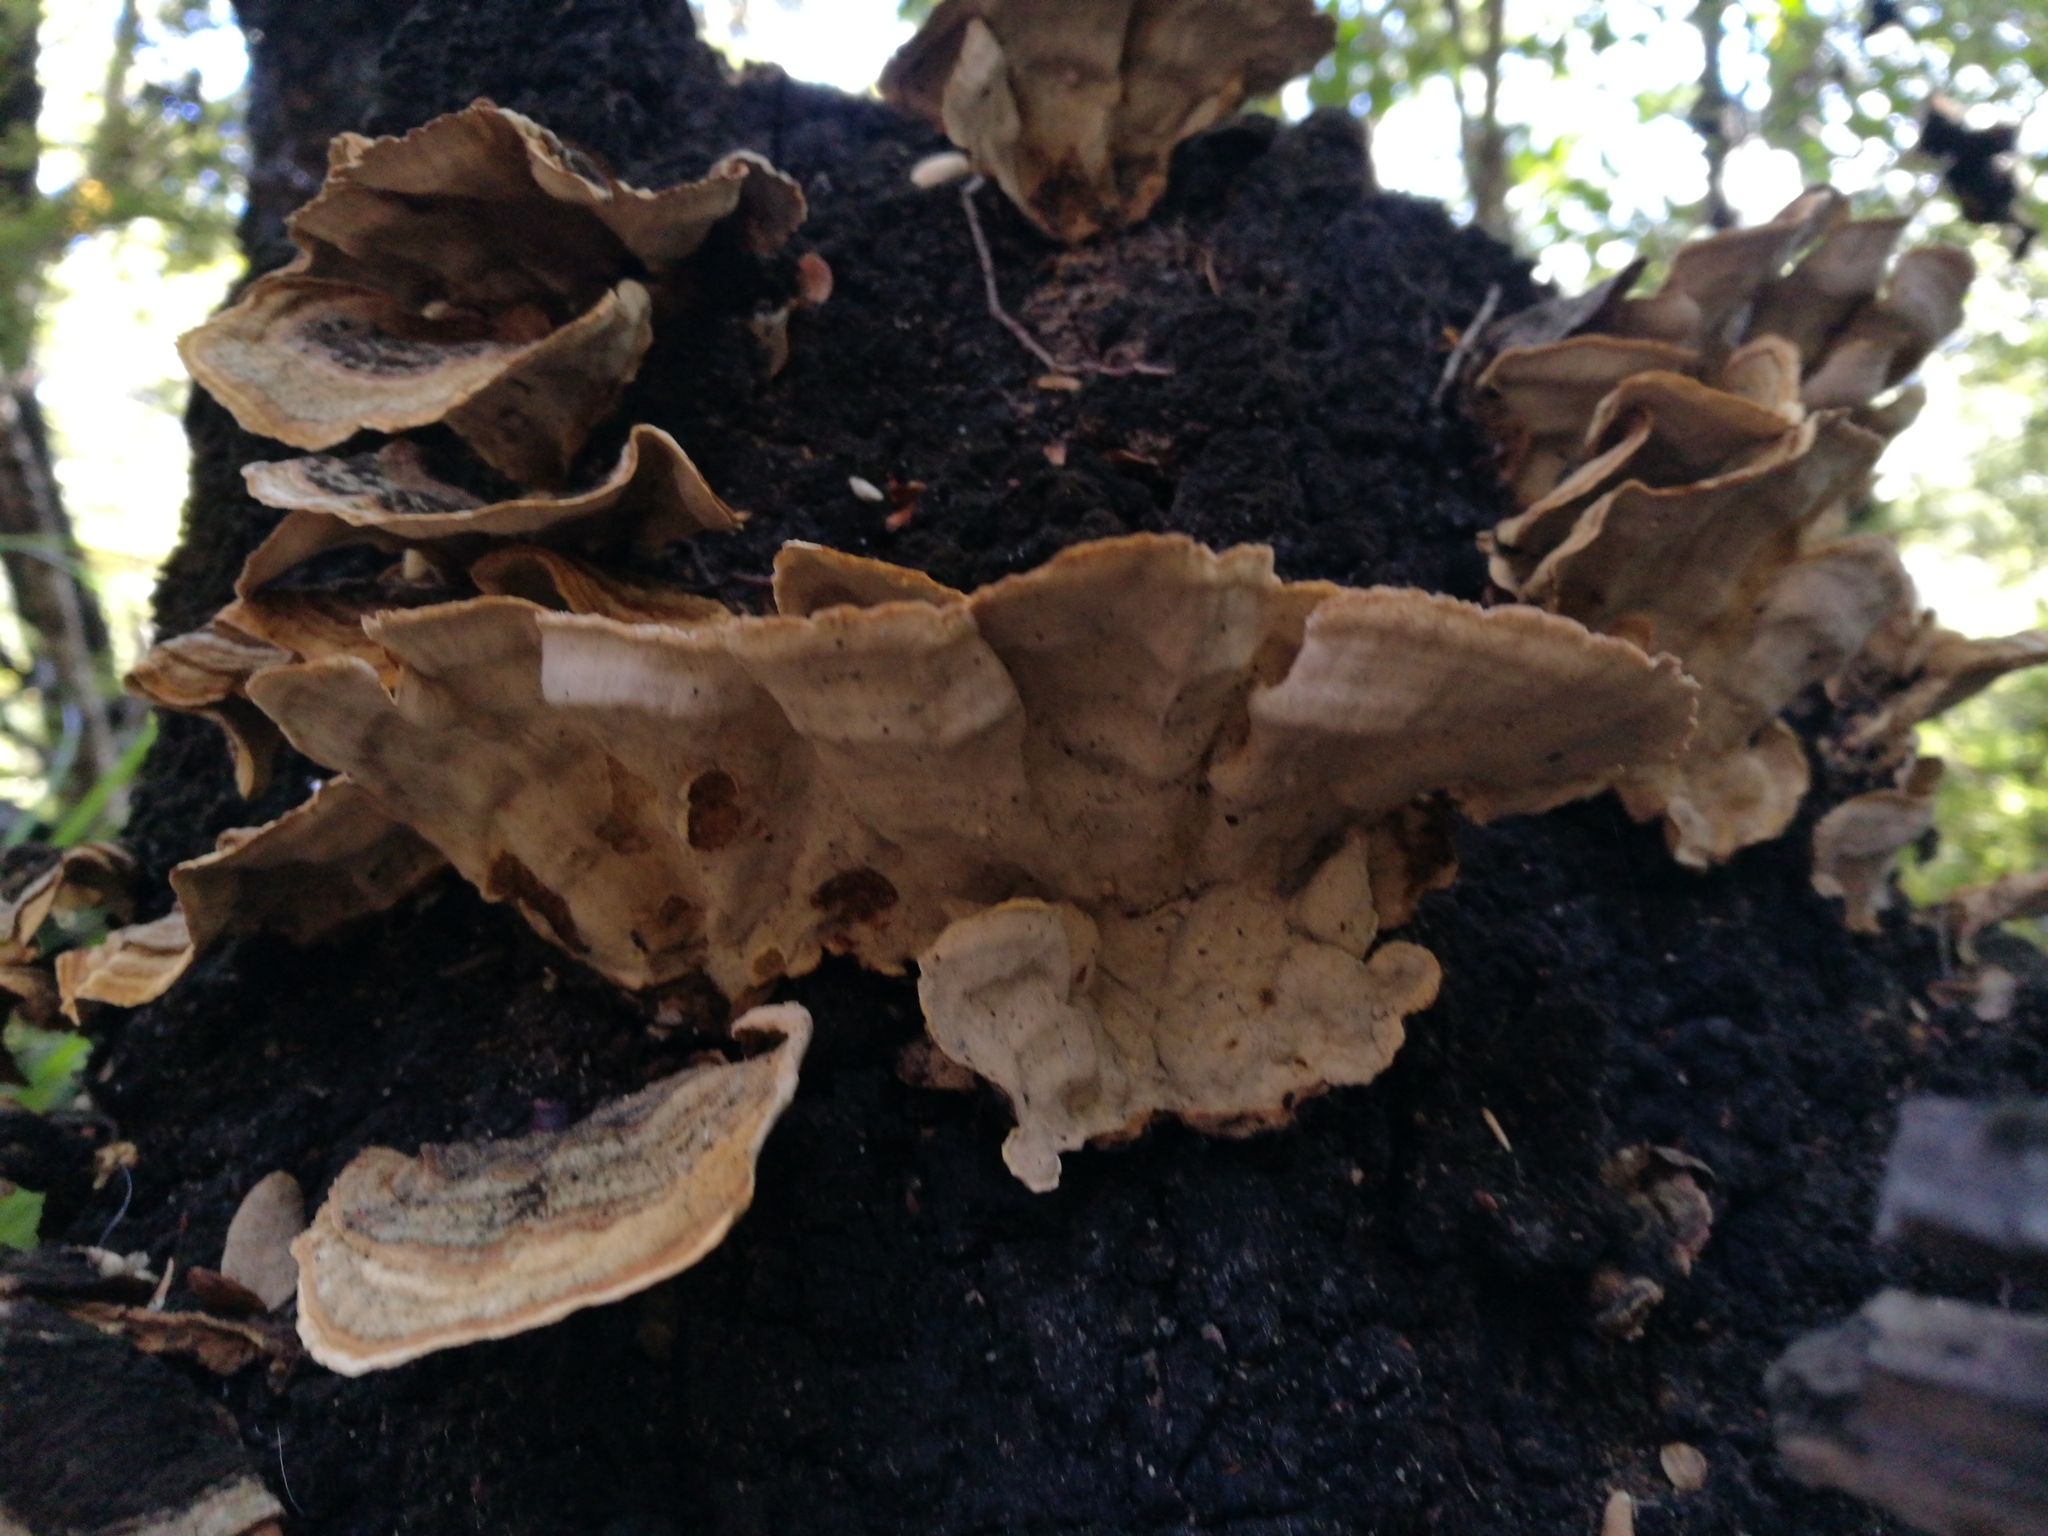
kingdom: Fungi
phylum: Basidiomycota
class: Agaricomycetes
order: Russulales
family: Stereaceae
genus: Stereum
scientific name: Stereum versicolor
